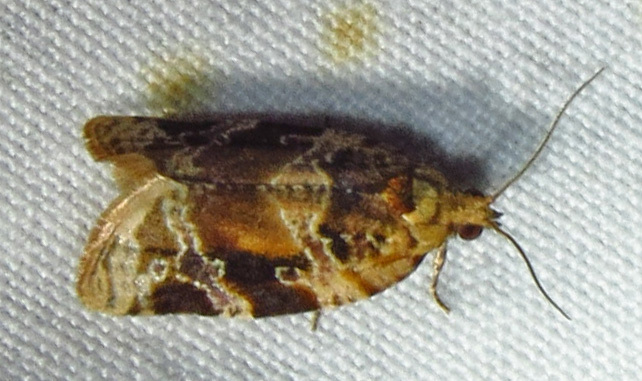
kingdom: Animalia
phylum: Arthropoda
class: Insecta
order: Lepidoptera
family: Tortricidae
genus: Argyrotaenia
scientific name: Argyrotaenia velutinana
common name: Red-banded leafroller moth
